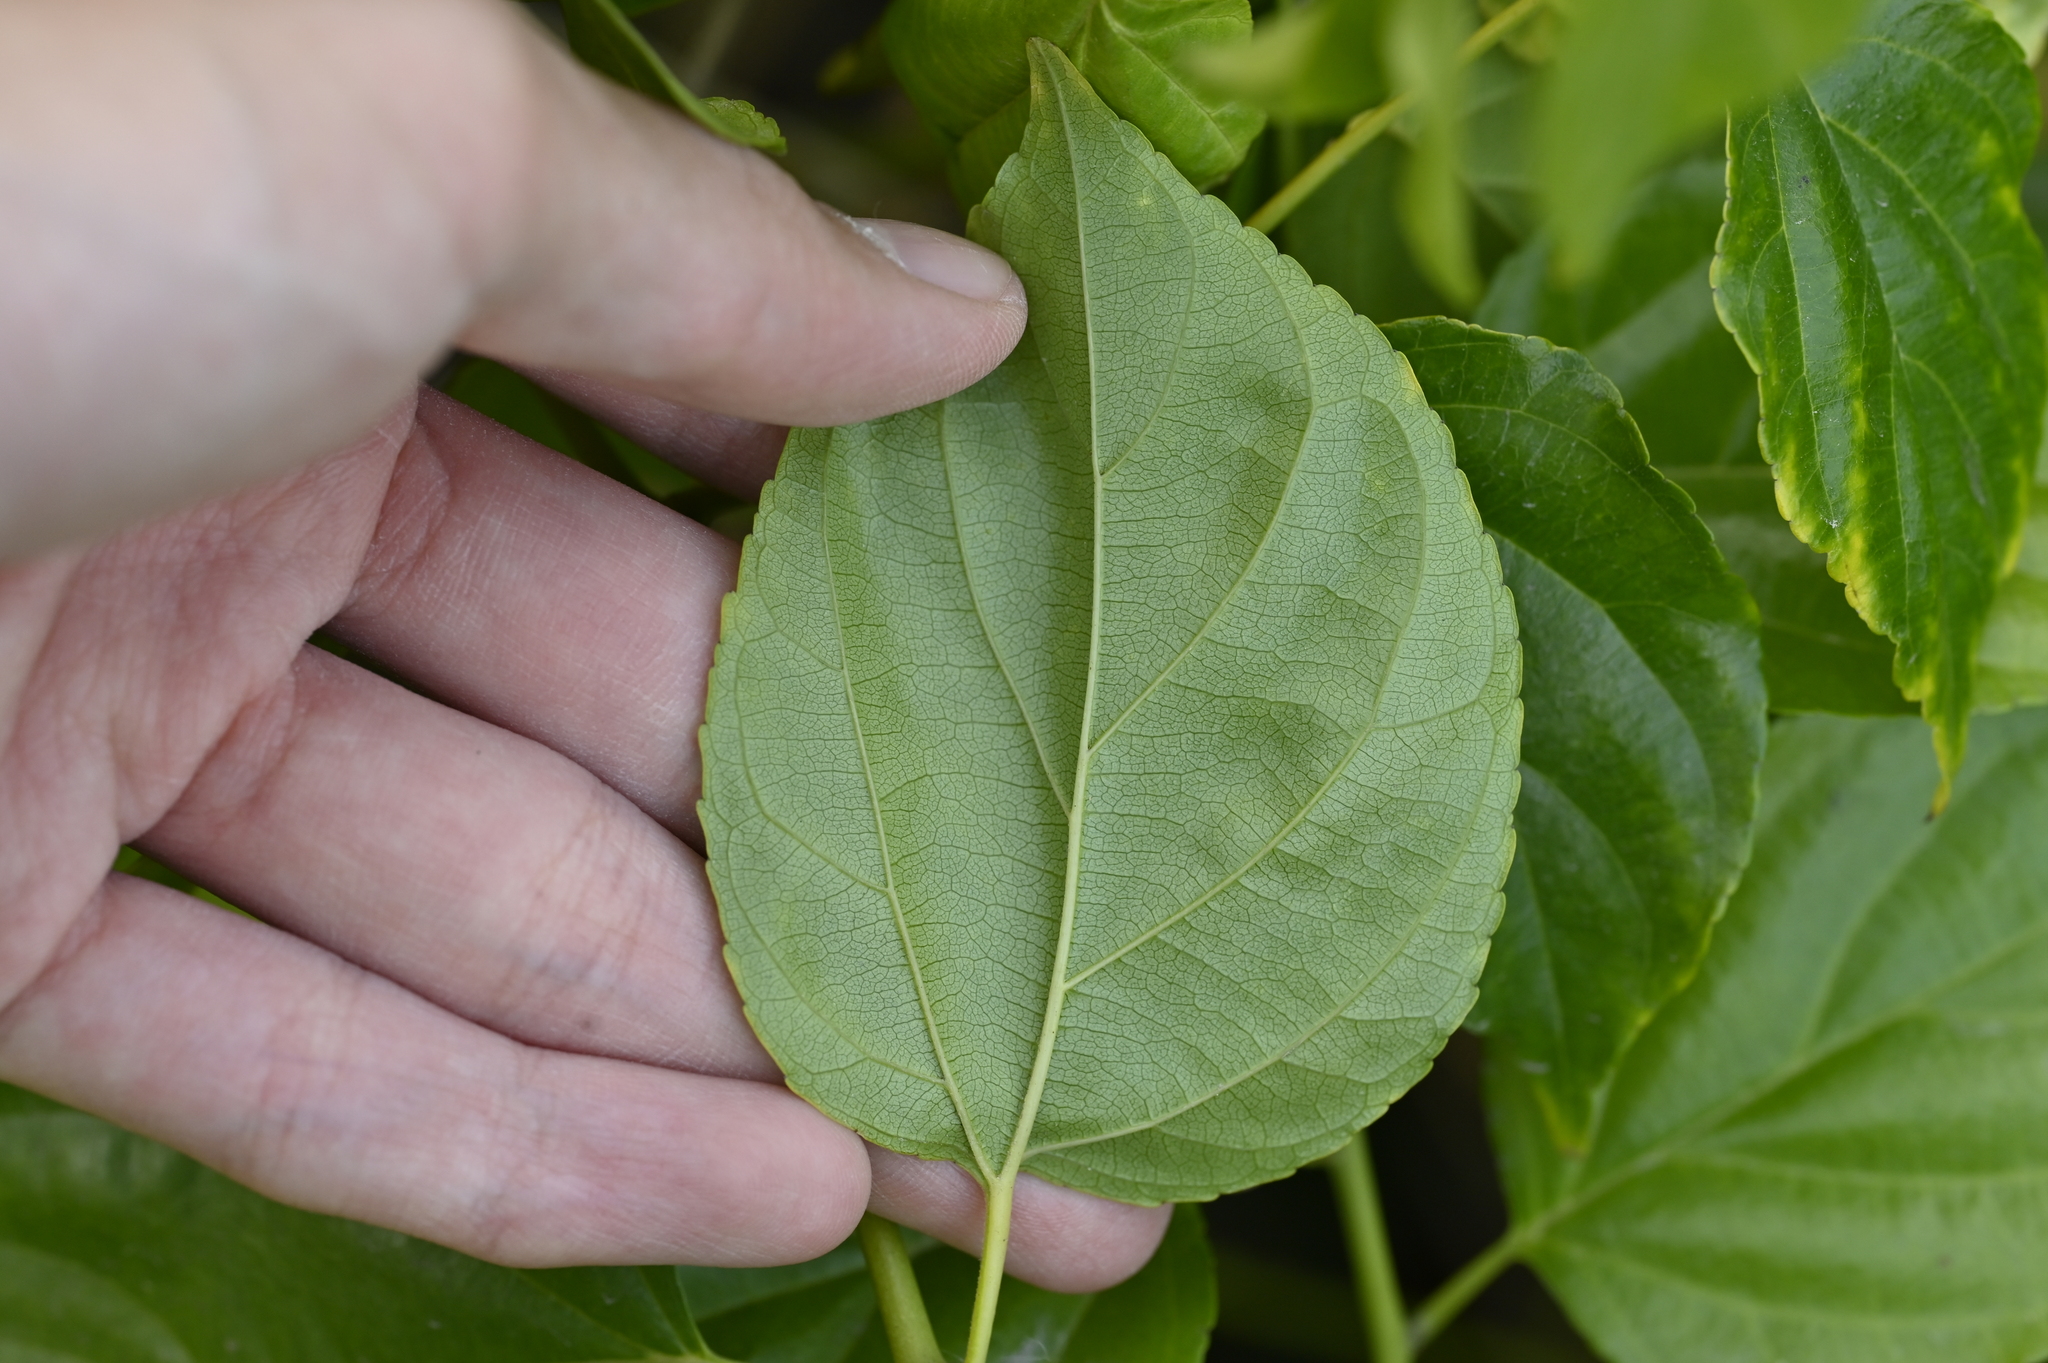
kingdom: Plantae
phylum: Tracheophyta
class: Magnoliopsida
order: Rosales
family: Rhamnaceae
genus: Colubrina
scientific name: Colubrina asiatica
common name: Asian nakedwood
